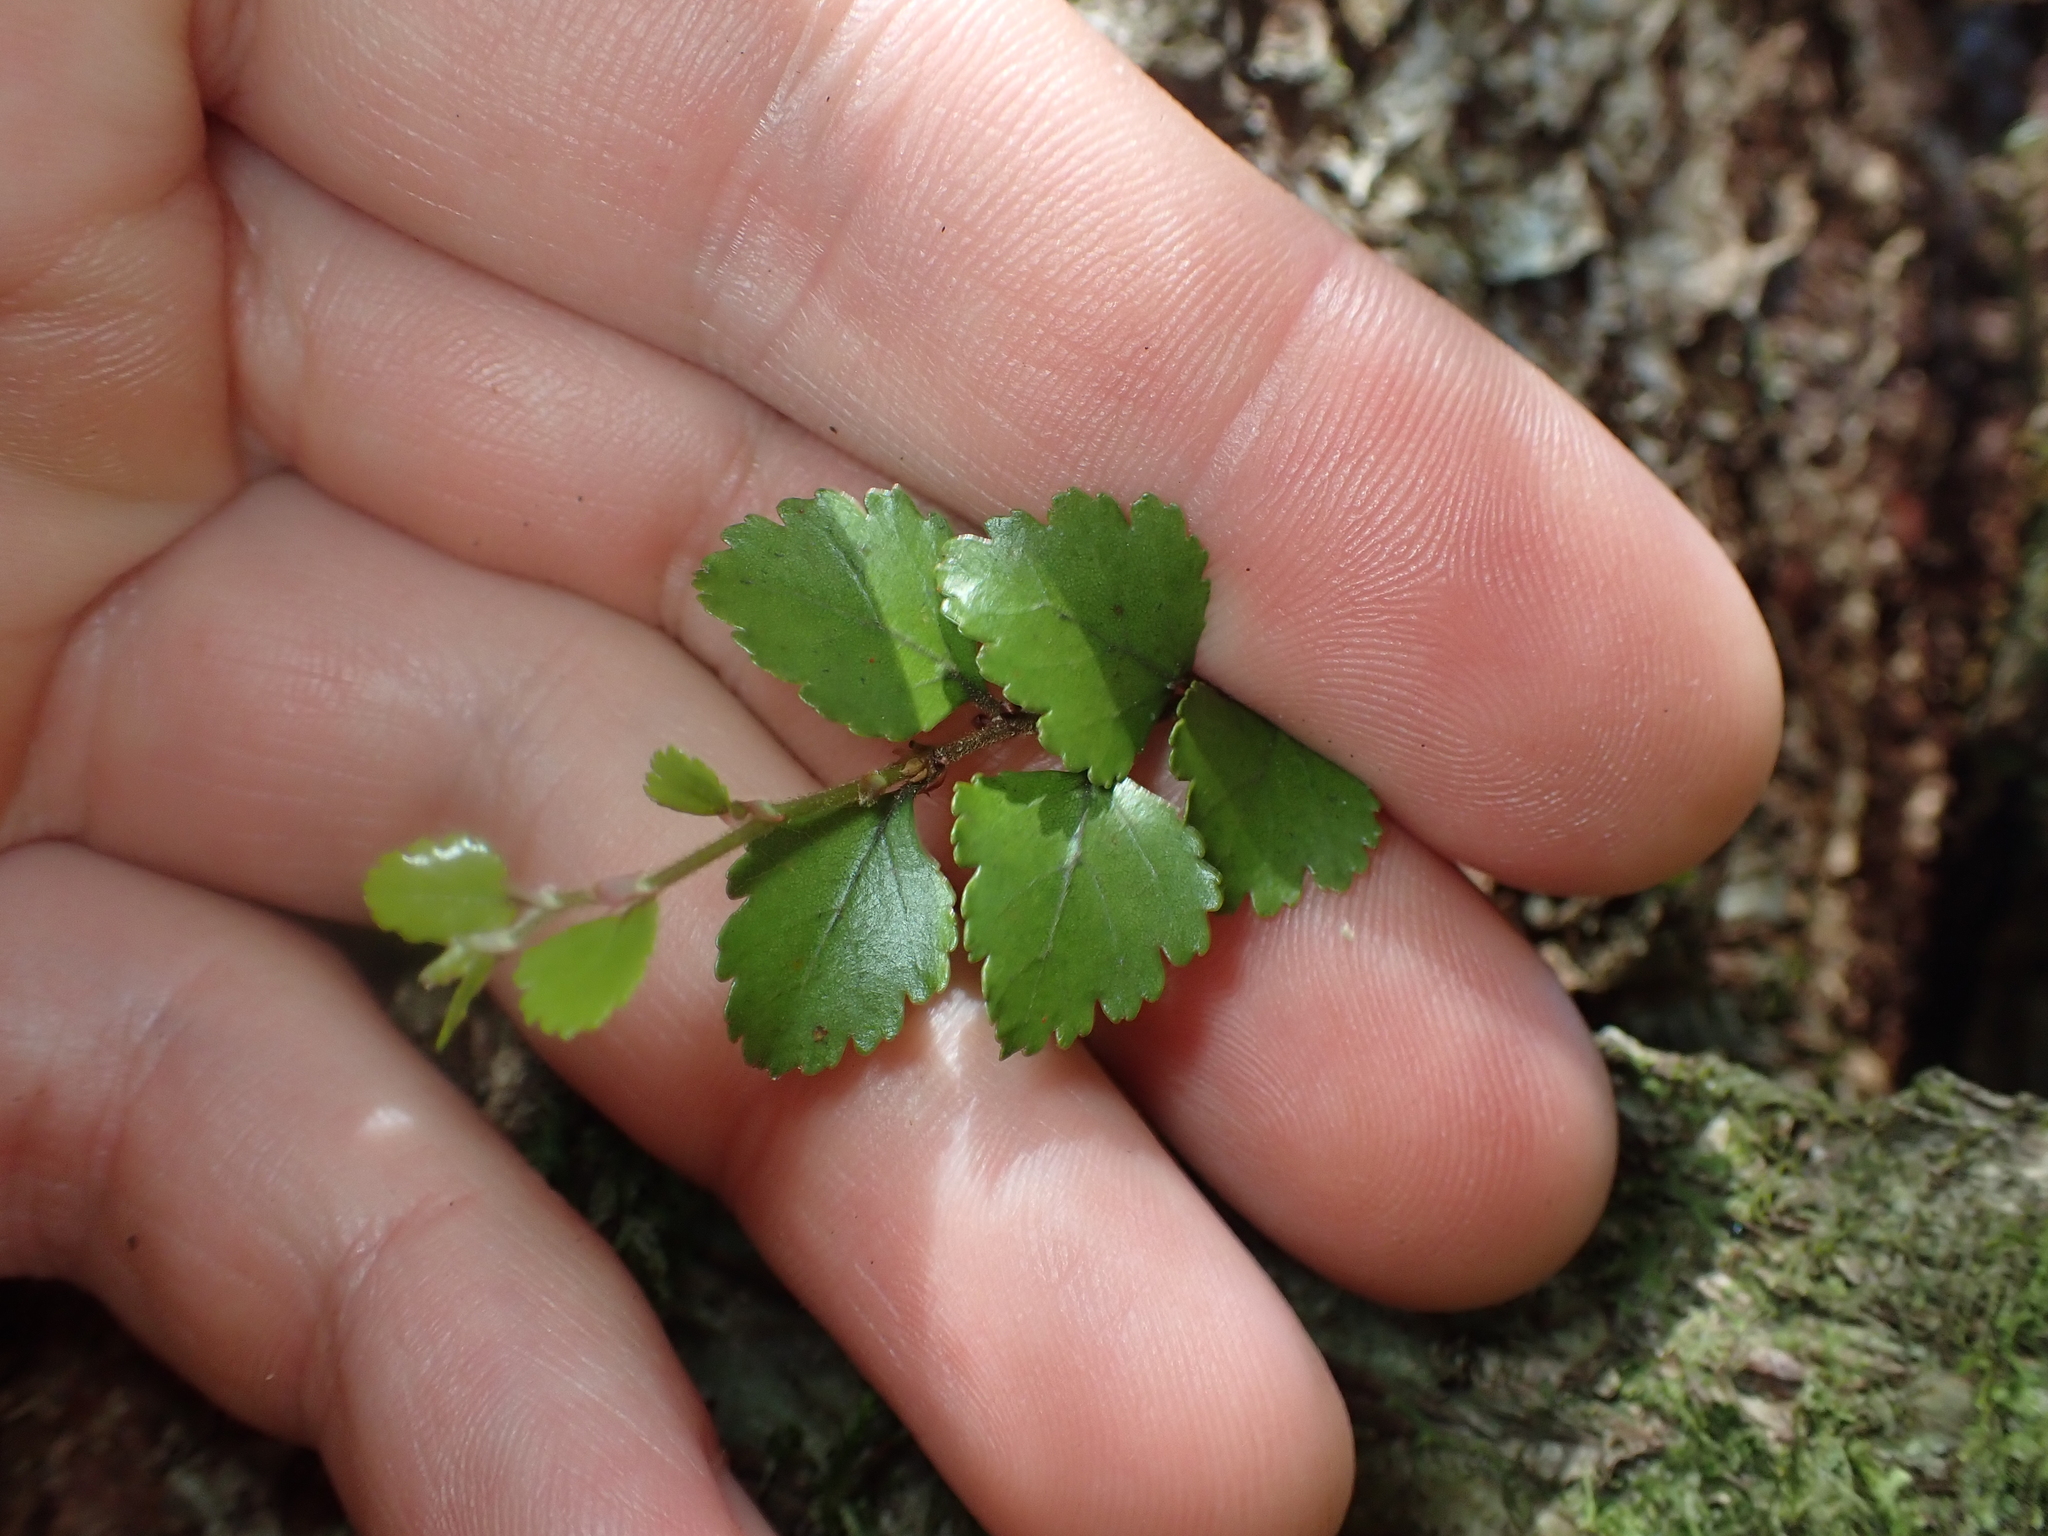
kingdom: Plantae
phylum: Tracheophyta
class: Magnoliopsida
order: Fagales
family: Nothofagaceae
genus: Nothofagus
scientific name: Nothofagus menziesii
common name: Silver beech
